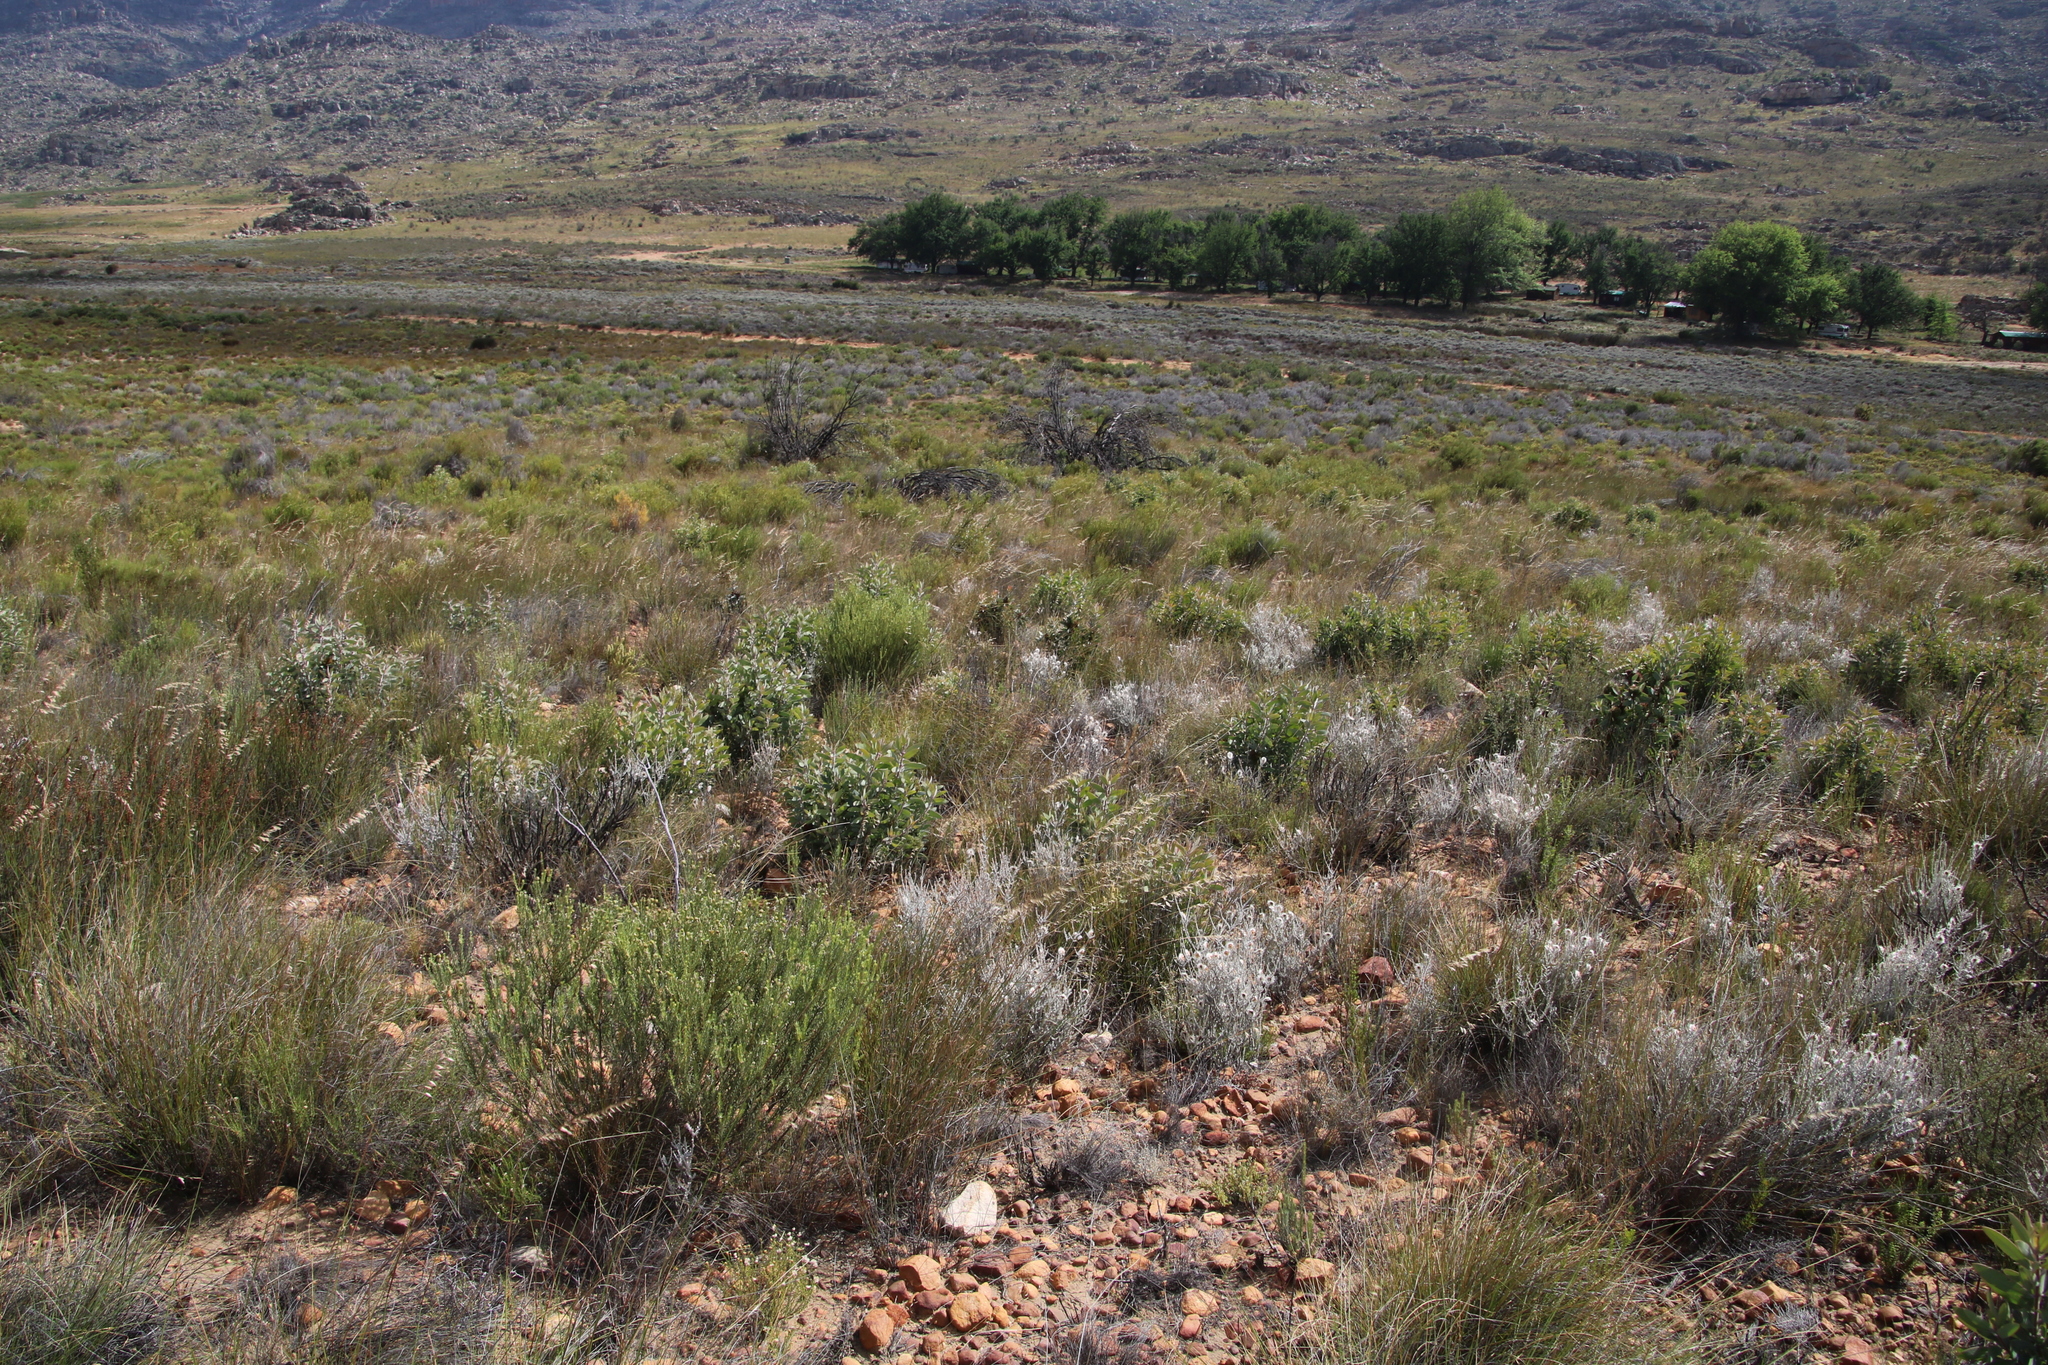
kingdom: Plantae
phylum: Tracheophyta
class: Magnoliopsida
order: Proteales
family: Proteaceae
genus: Protea
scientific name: Protea laurifolia
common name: Grey-leaf sugarbsh
